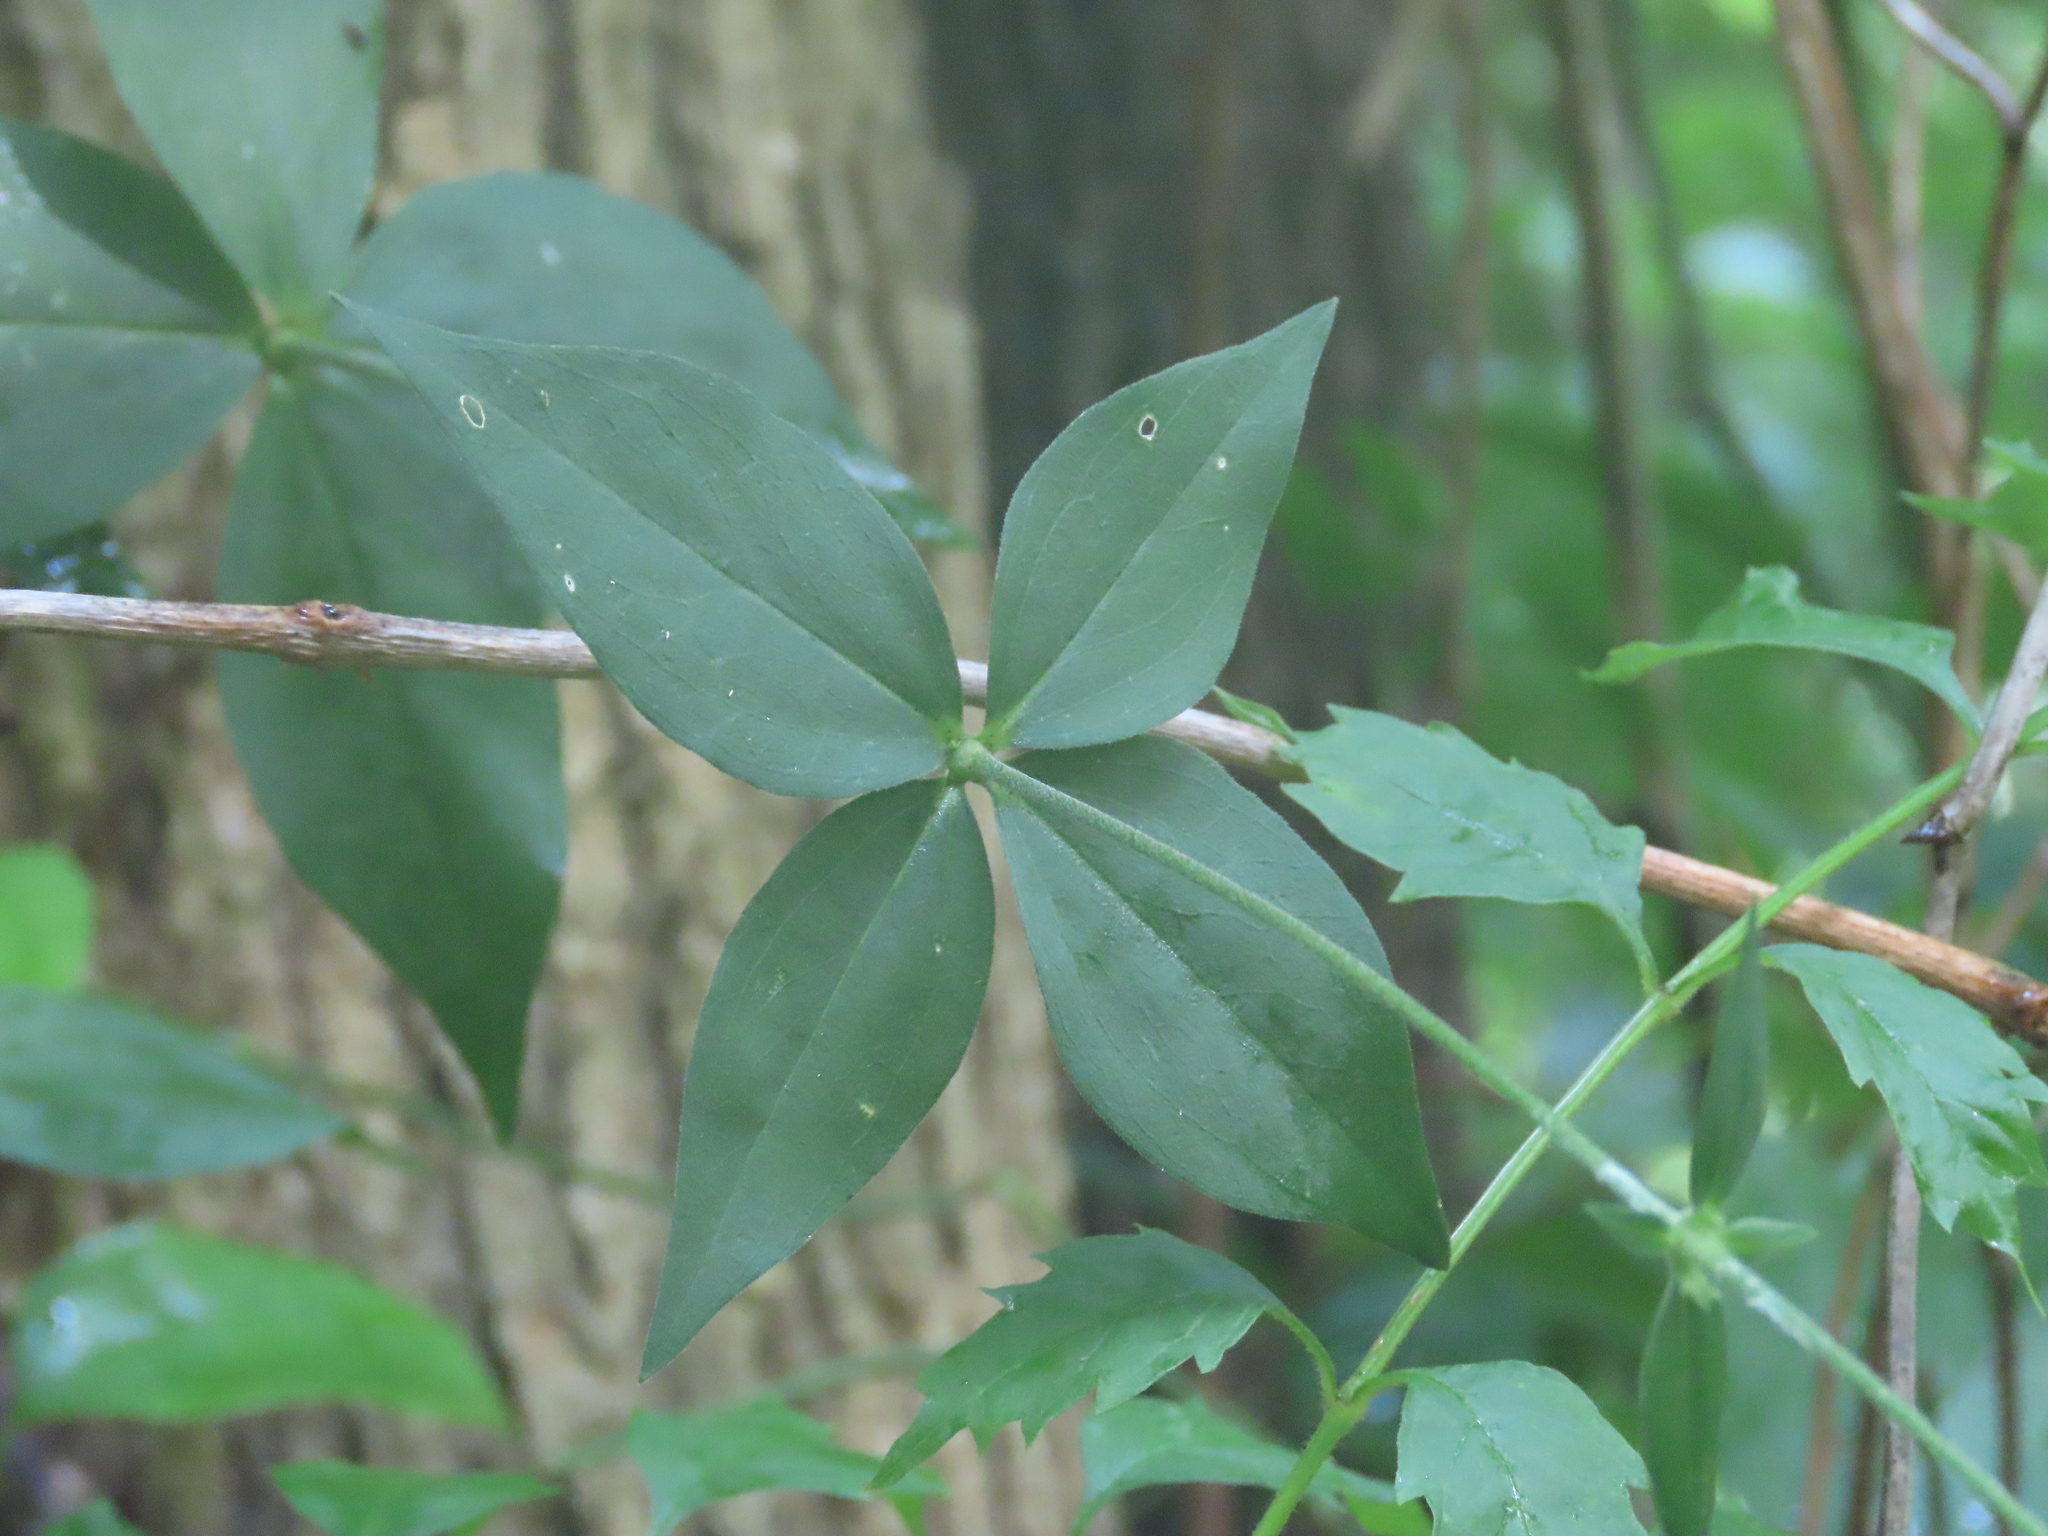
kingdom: Plantae
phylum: Tracheophyta
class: Magnoliopsida
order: Caryophyllales
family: Caryophyllaceae
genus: Silene
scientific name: Silene stellata
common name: Starry campion
